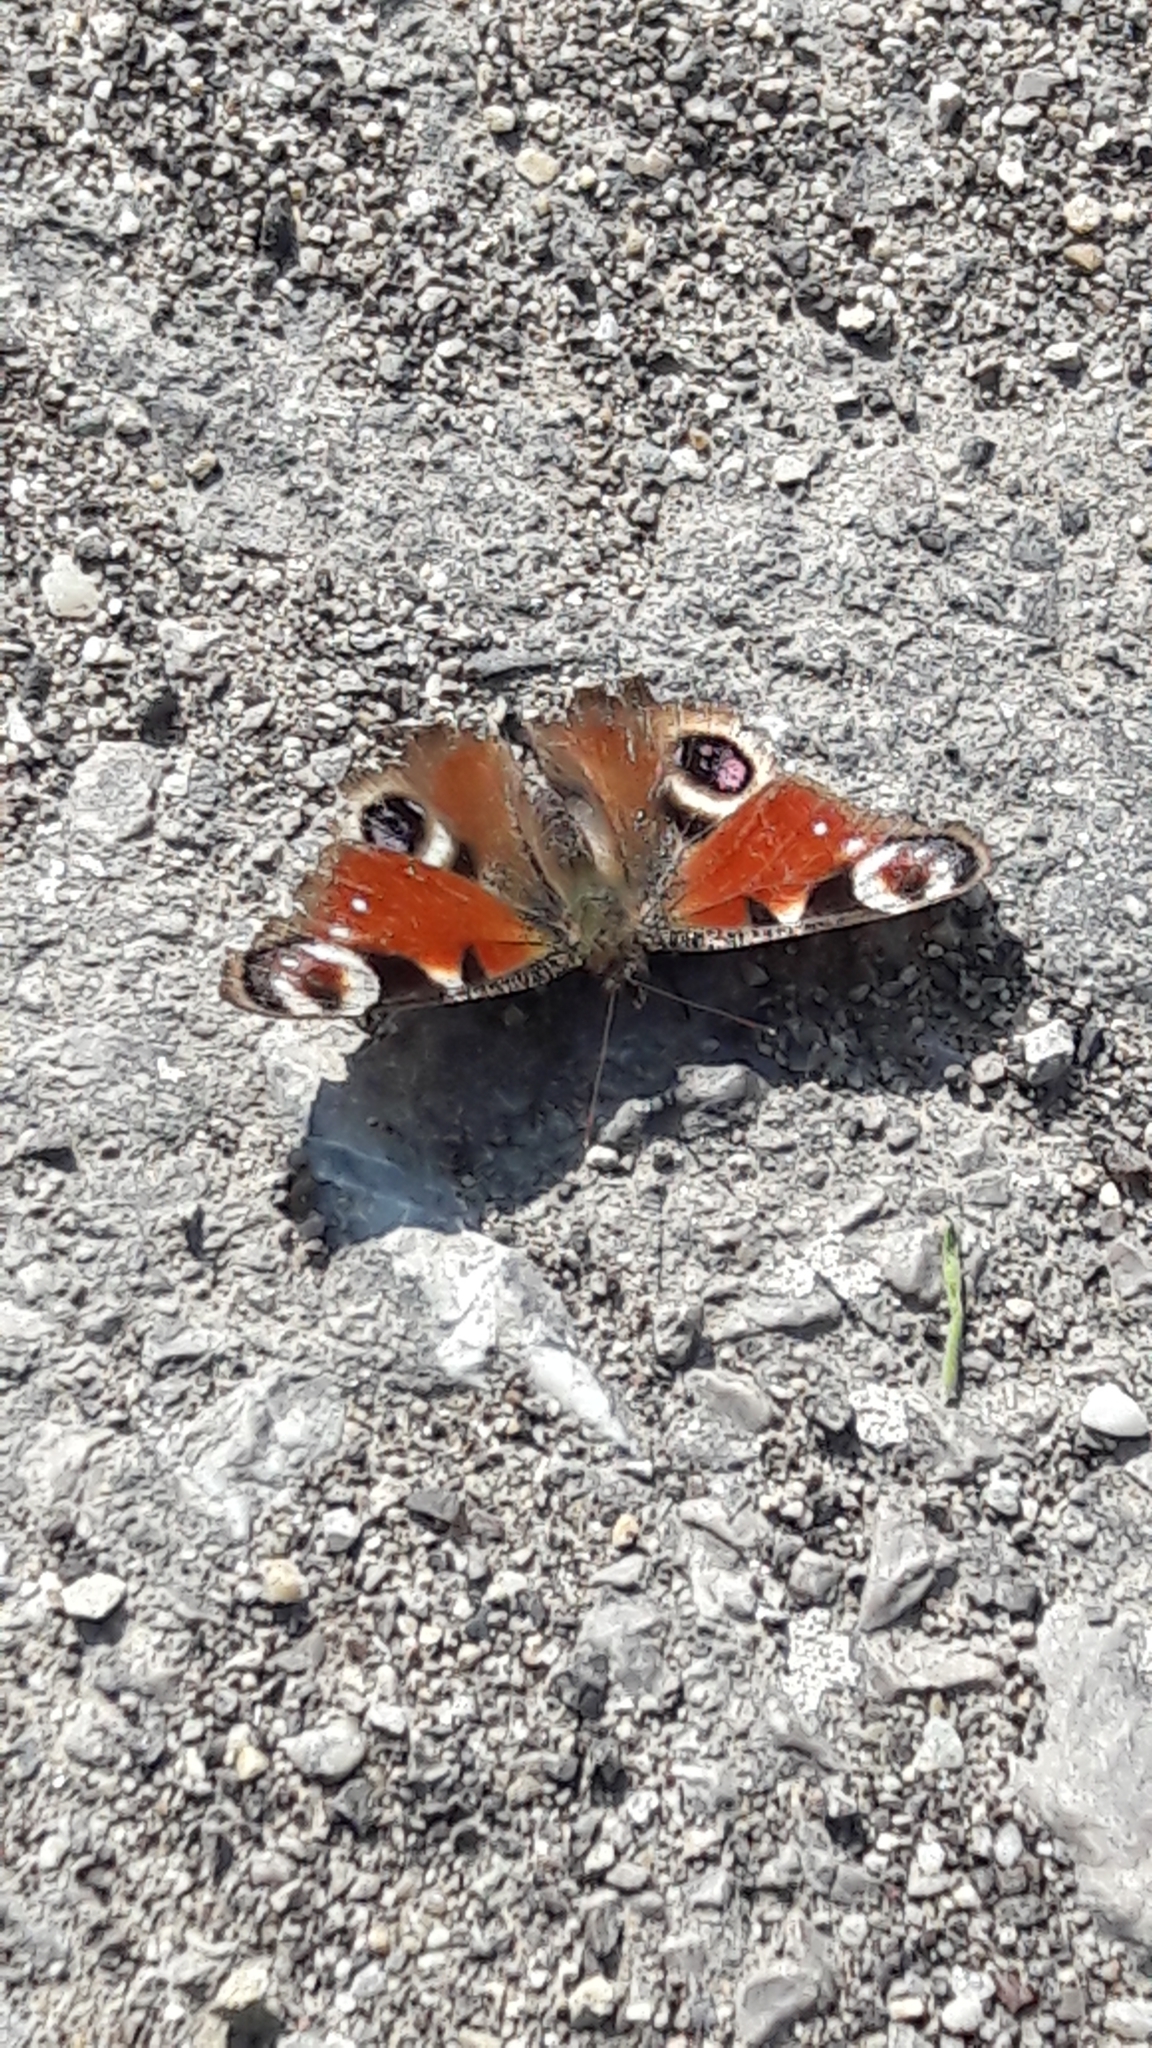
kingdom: Animalia
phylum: Arthropoda
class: Insecta
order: Lepidoptera
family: Nymphalidae
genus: Aglais
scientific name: Aglais io
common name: Peacock
